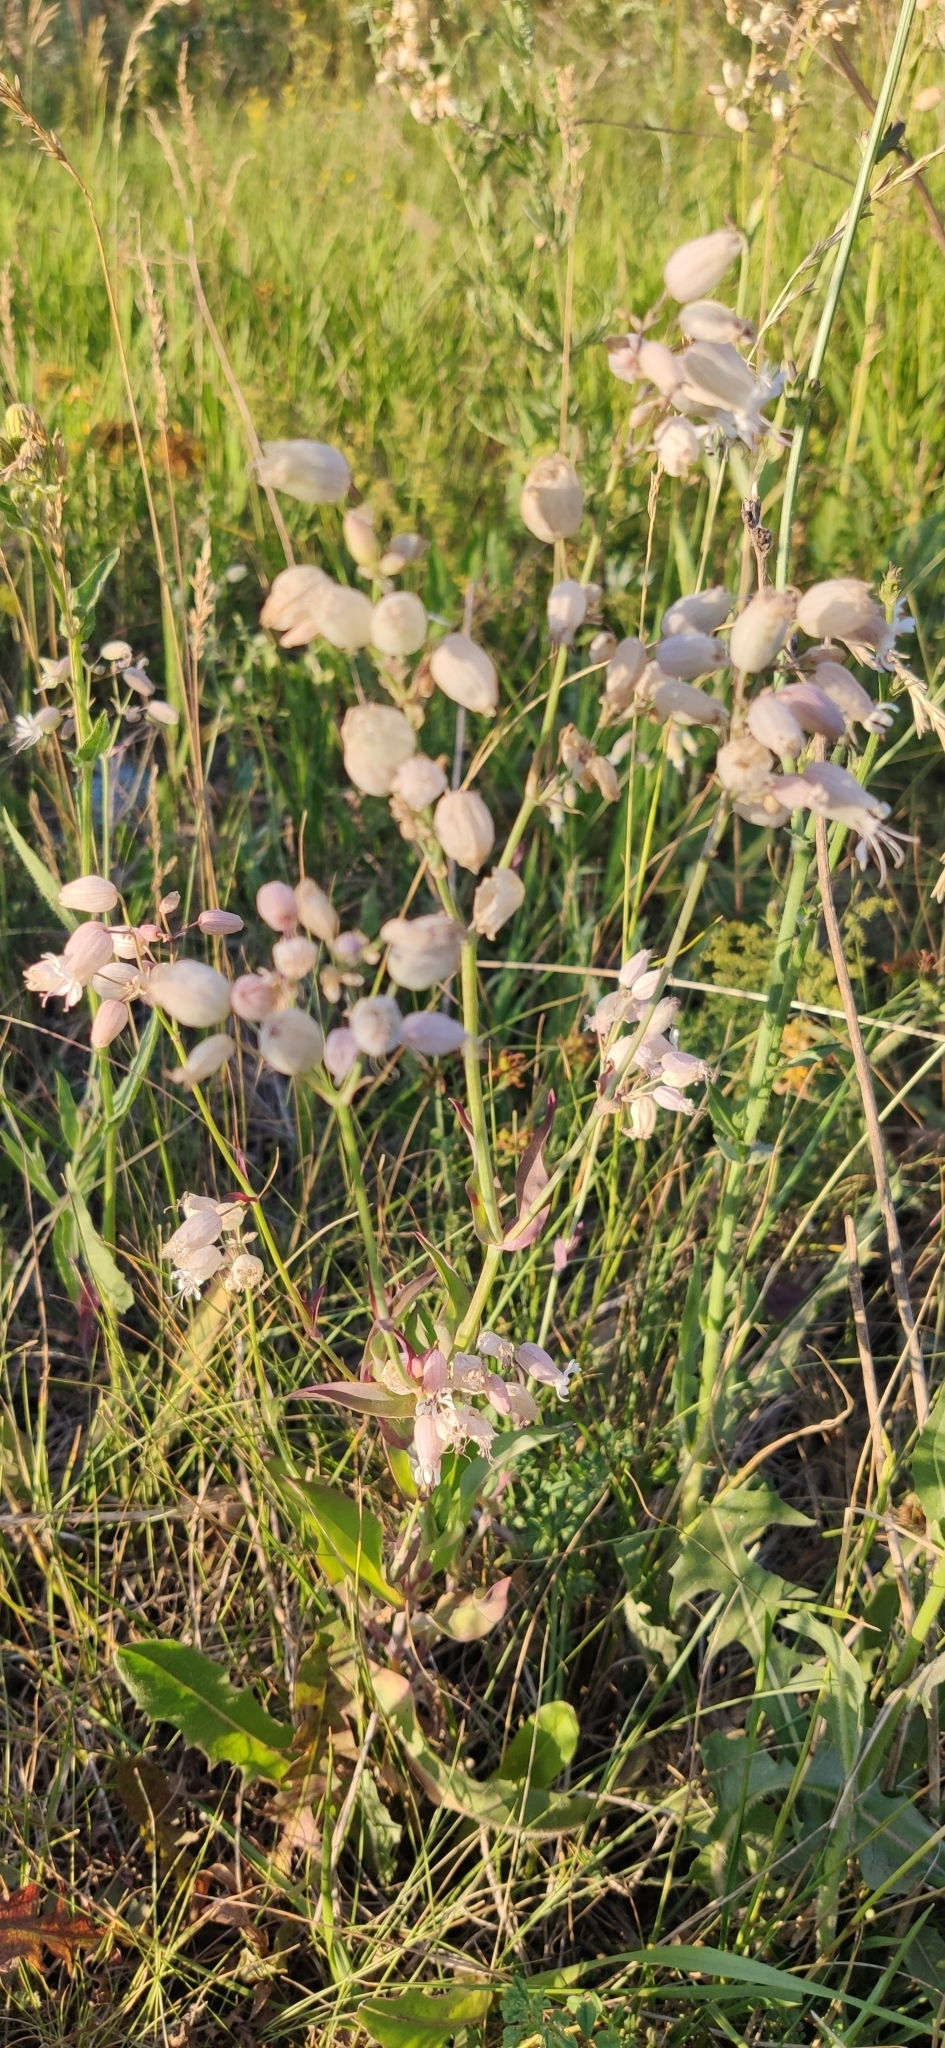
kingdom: Plantae
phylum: Tracheophyta
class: Magnoliopsida
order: Caryophyllales
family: Caryophyllaceae
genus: Silene
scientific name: Silene vulgaris
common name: Bladder campion
